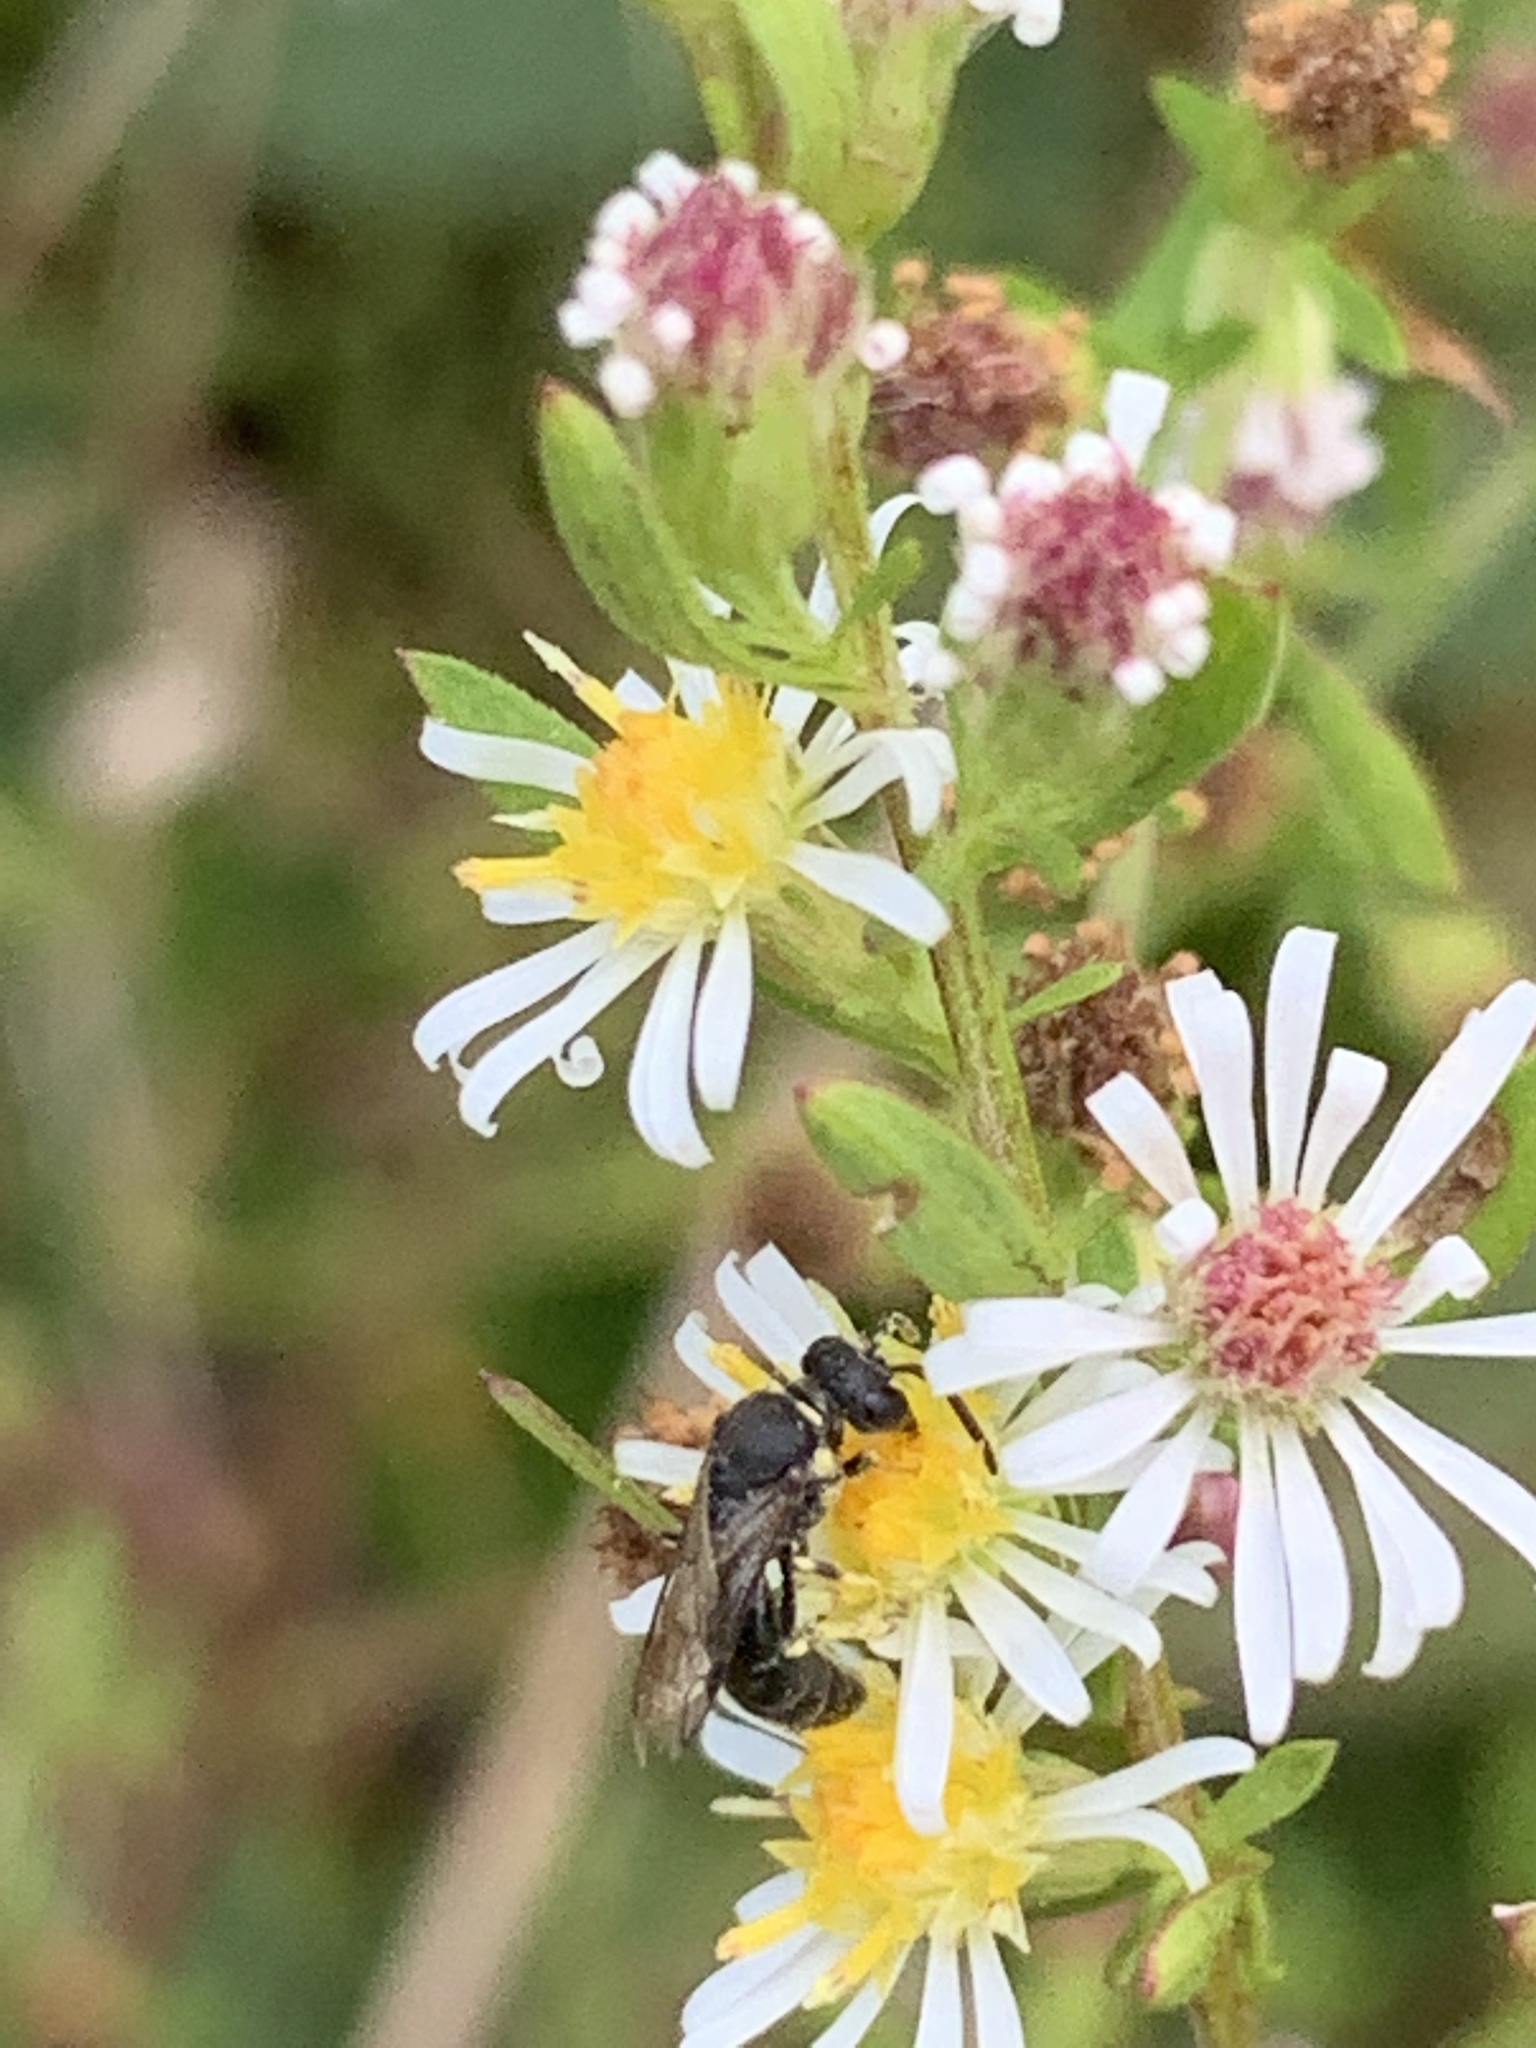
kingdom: Animalia
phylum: Arthropoda
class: Insecta
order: Hymenoptera
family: Colletidae
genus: Hylaeus
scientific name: Hylaeus
